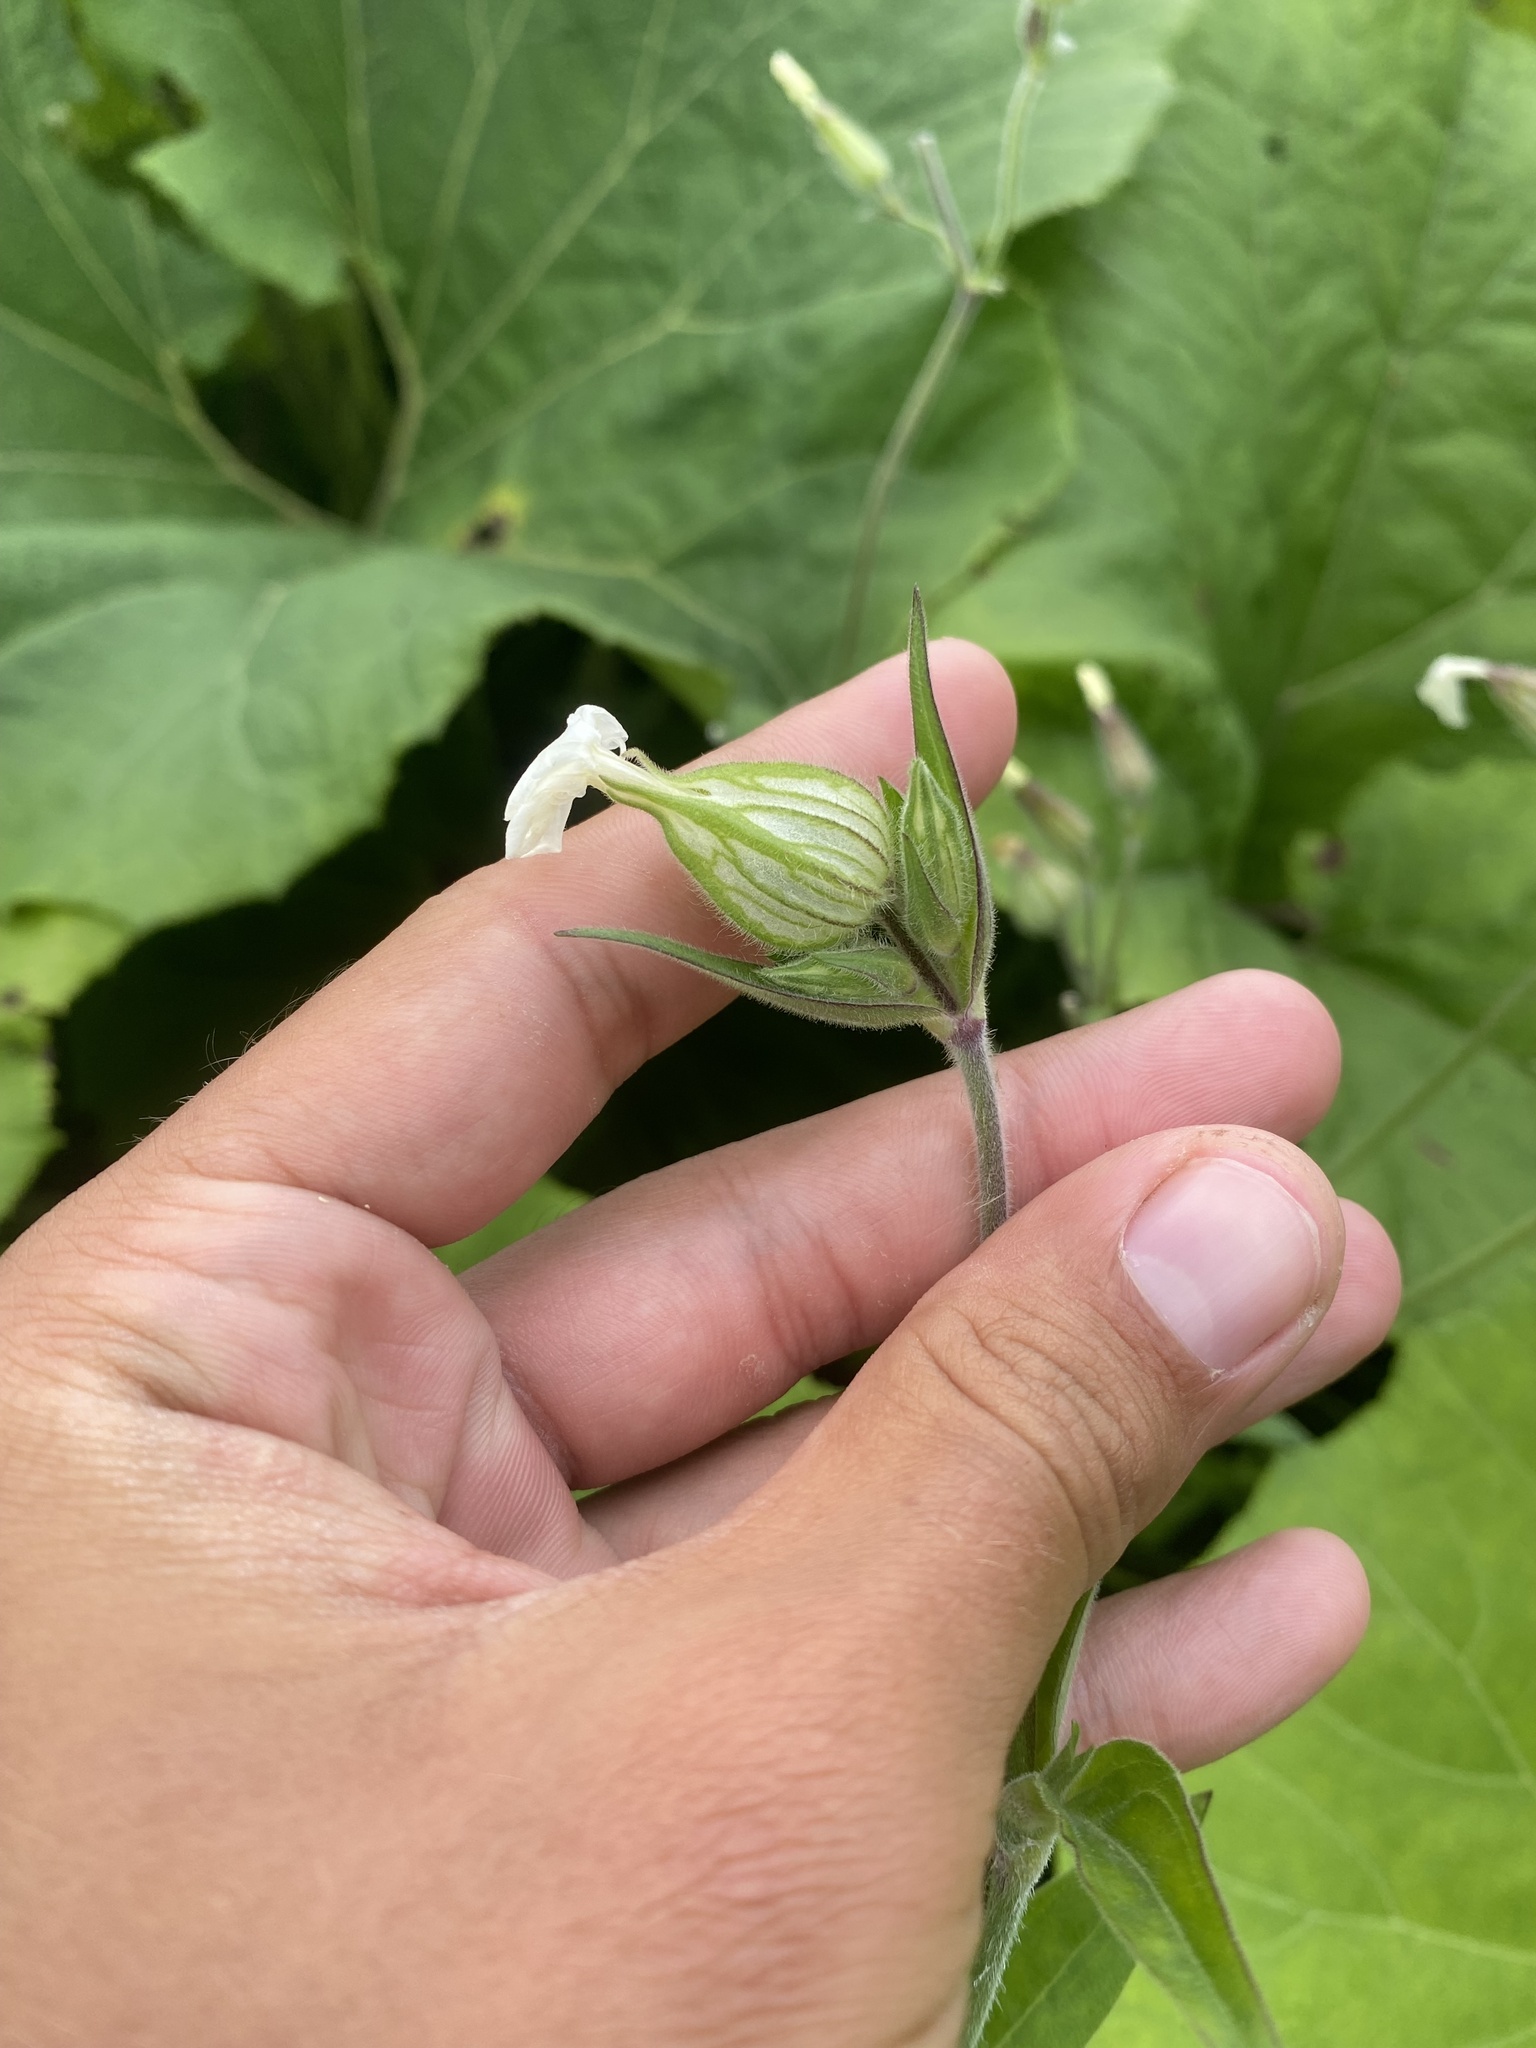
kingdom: Plantae
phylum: Tracheophyta
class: Magnoliopsida
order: Caryophyllales
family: Caryophyllaceae
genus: Silene
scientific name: Silene latifolia
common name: White campion
